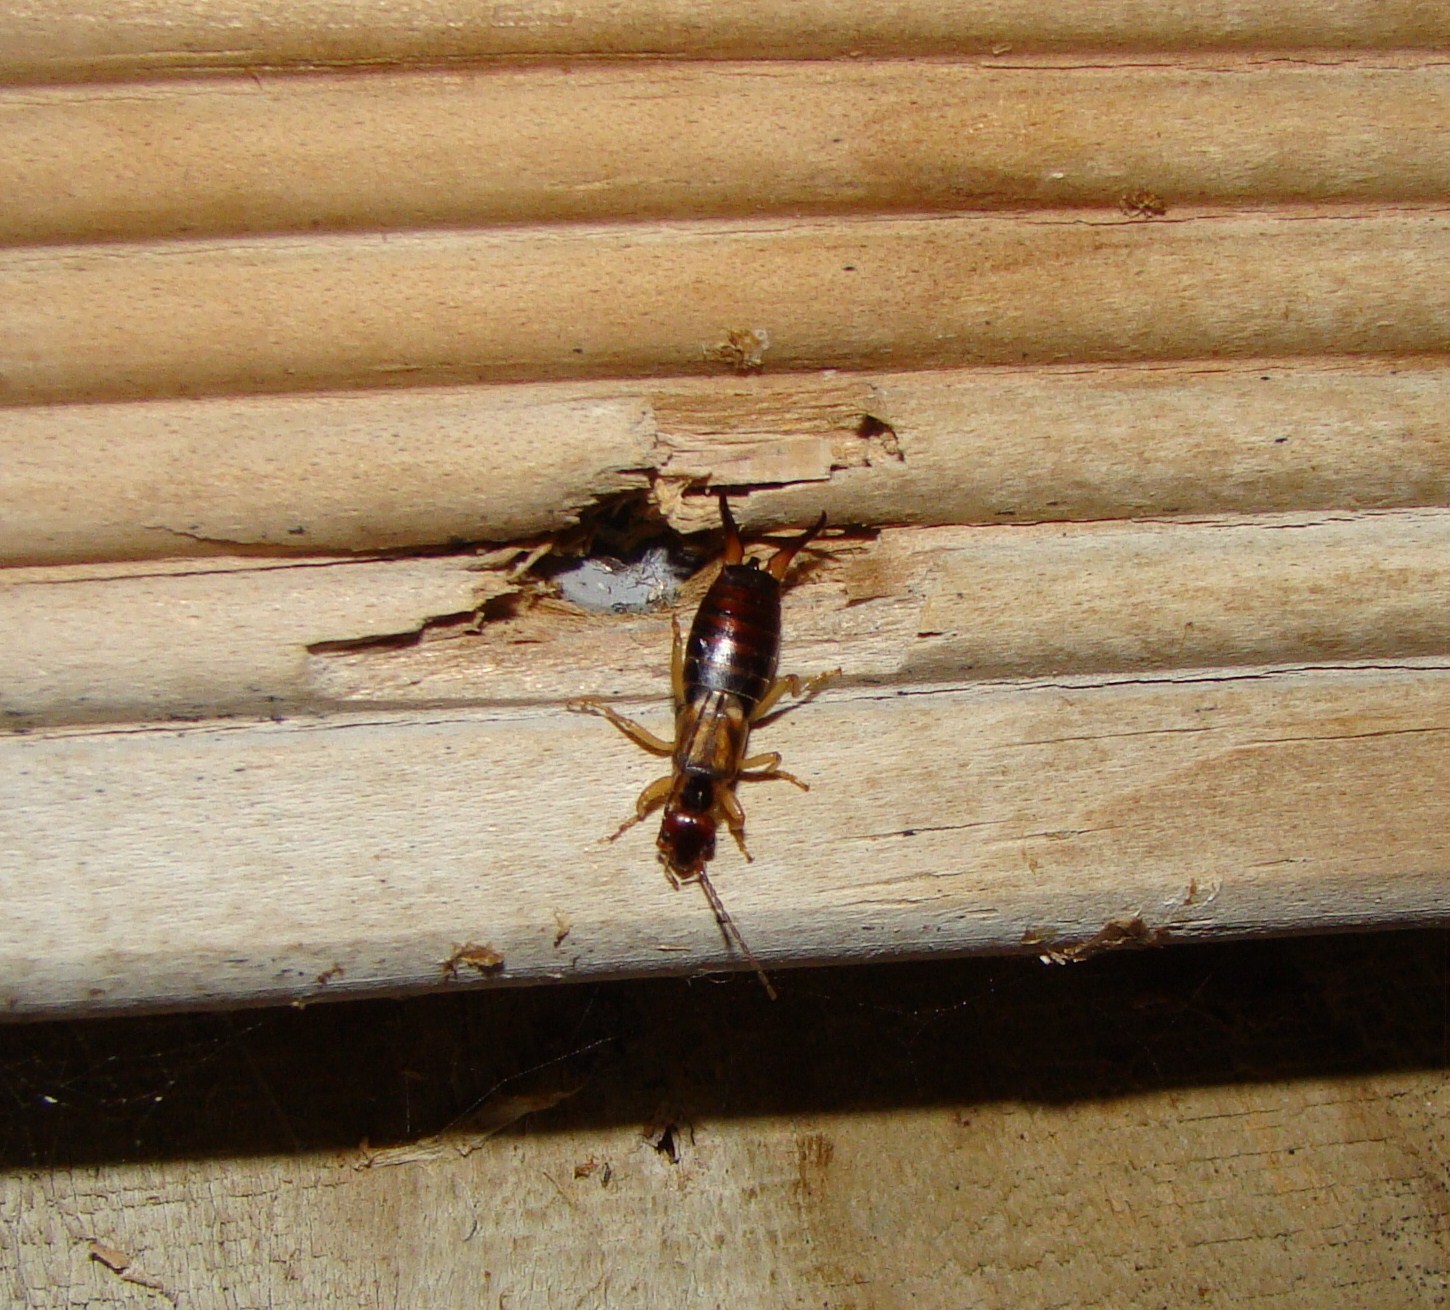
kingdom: Animalia
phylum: Arthropoda
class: Insecta
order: Dermaptera
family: Forficulidae
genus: Forficula
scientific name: Forficula
